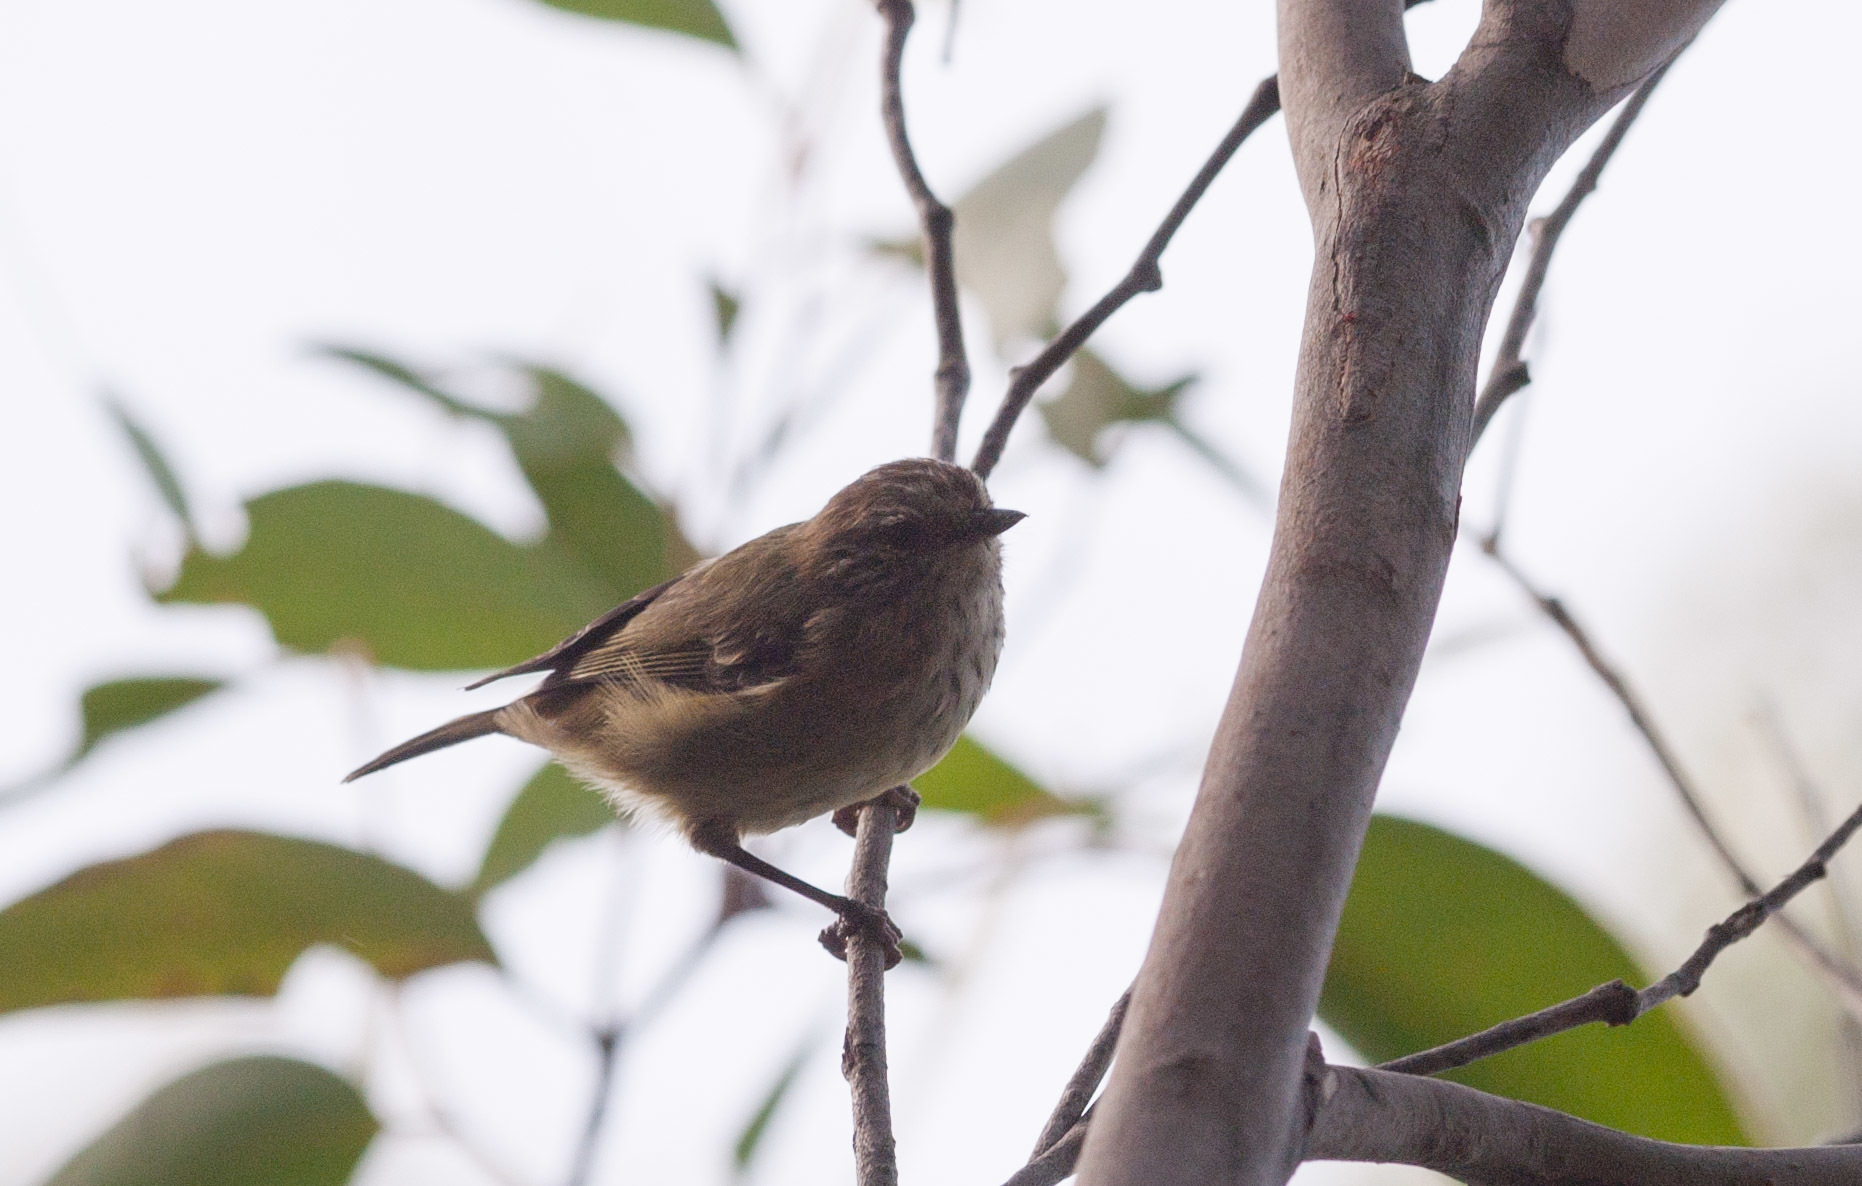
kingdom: Animalia
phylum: Chordata
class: Aves
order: Passeriformes
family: Acanthizidae
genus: Acanthiza
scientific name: Acanthiza lineata
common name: Striated thornbill
